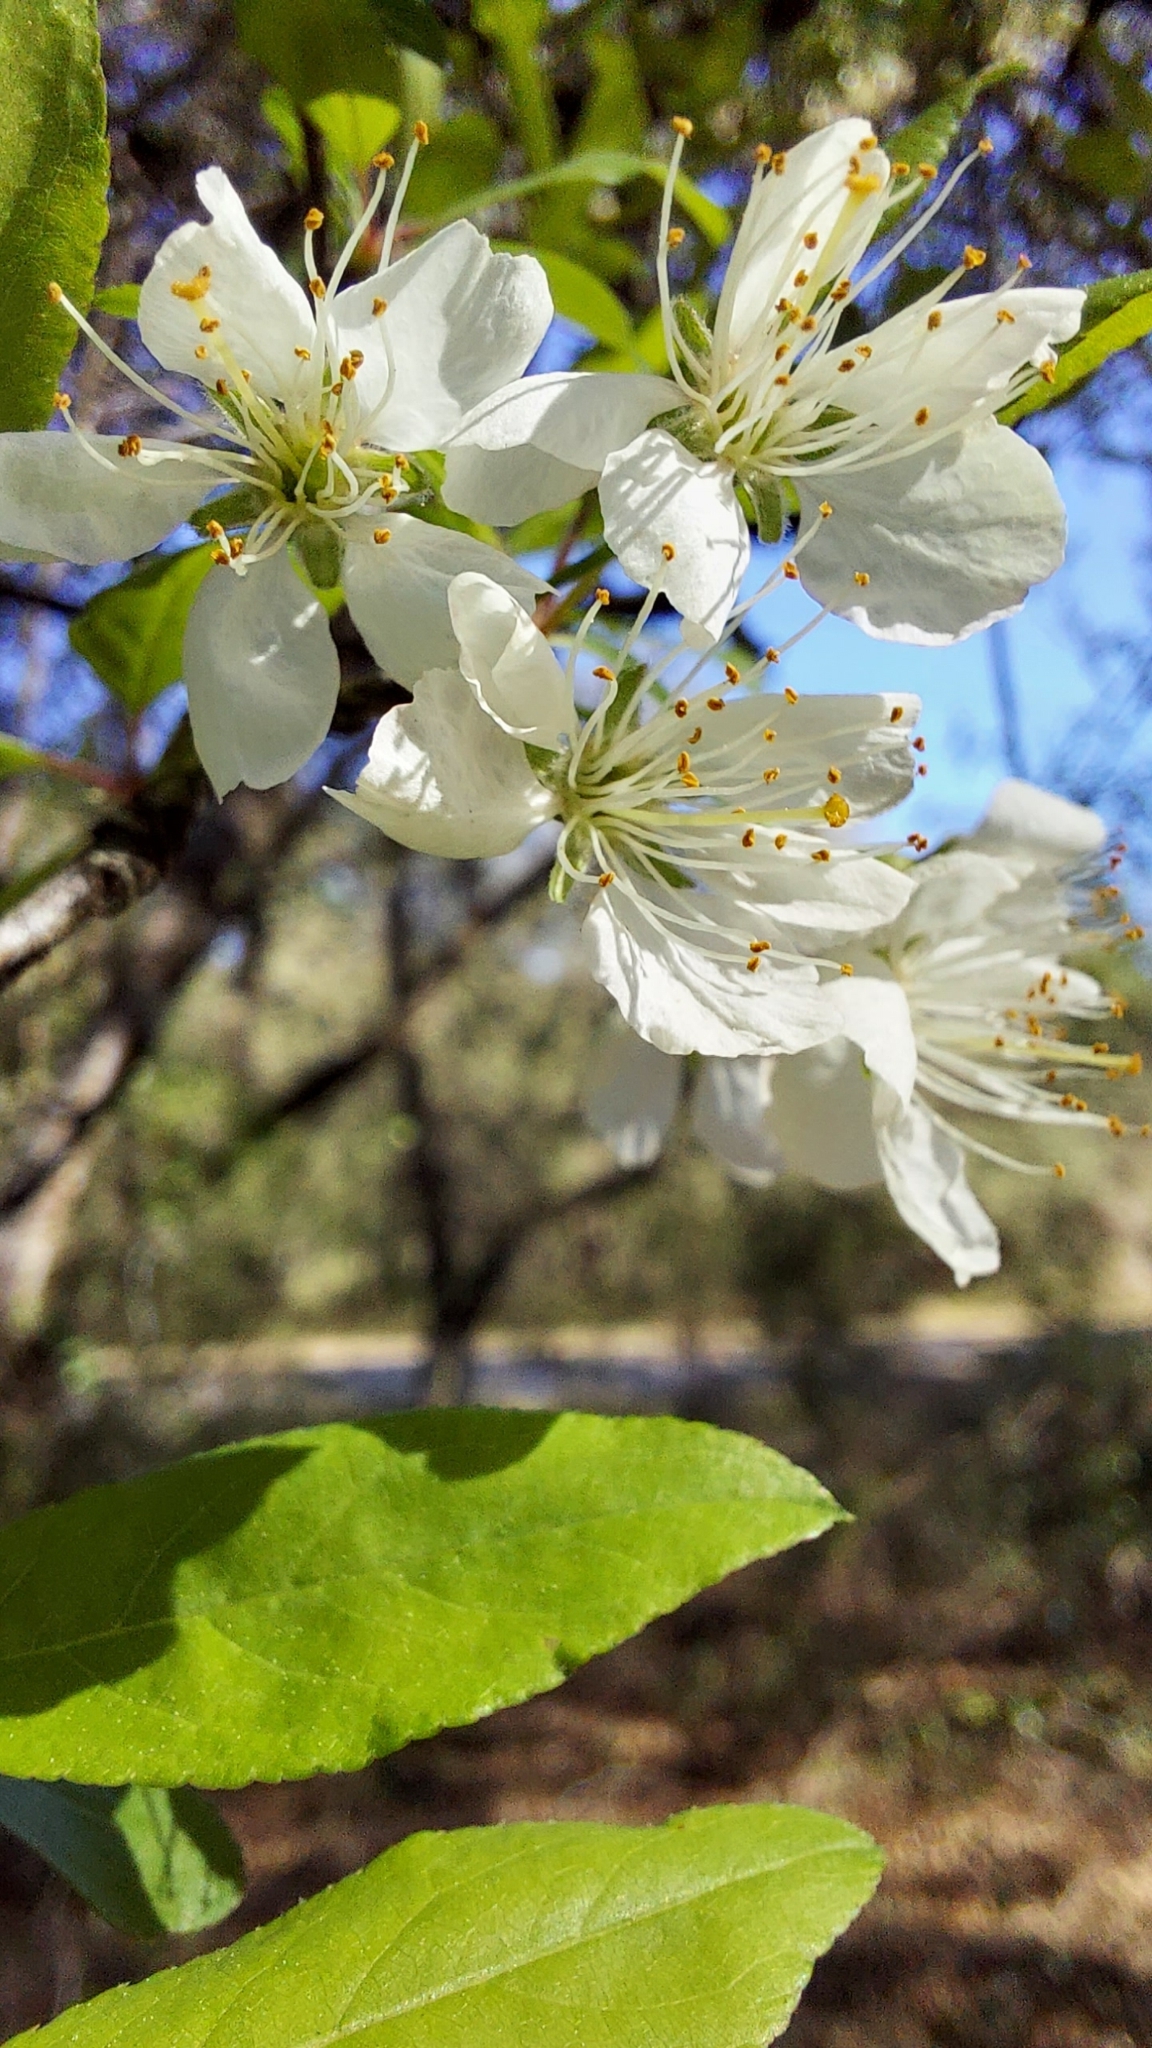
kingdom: Plantae
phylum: Tracheophyta
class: Magnoliopsida
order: Rosales
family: Rosaceae
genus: Prunus
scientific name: Prunus umbellata
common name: Allegheny plum
